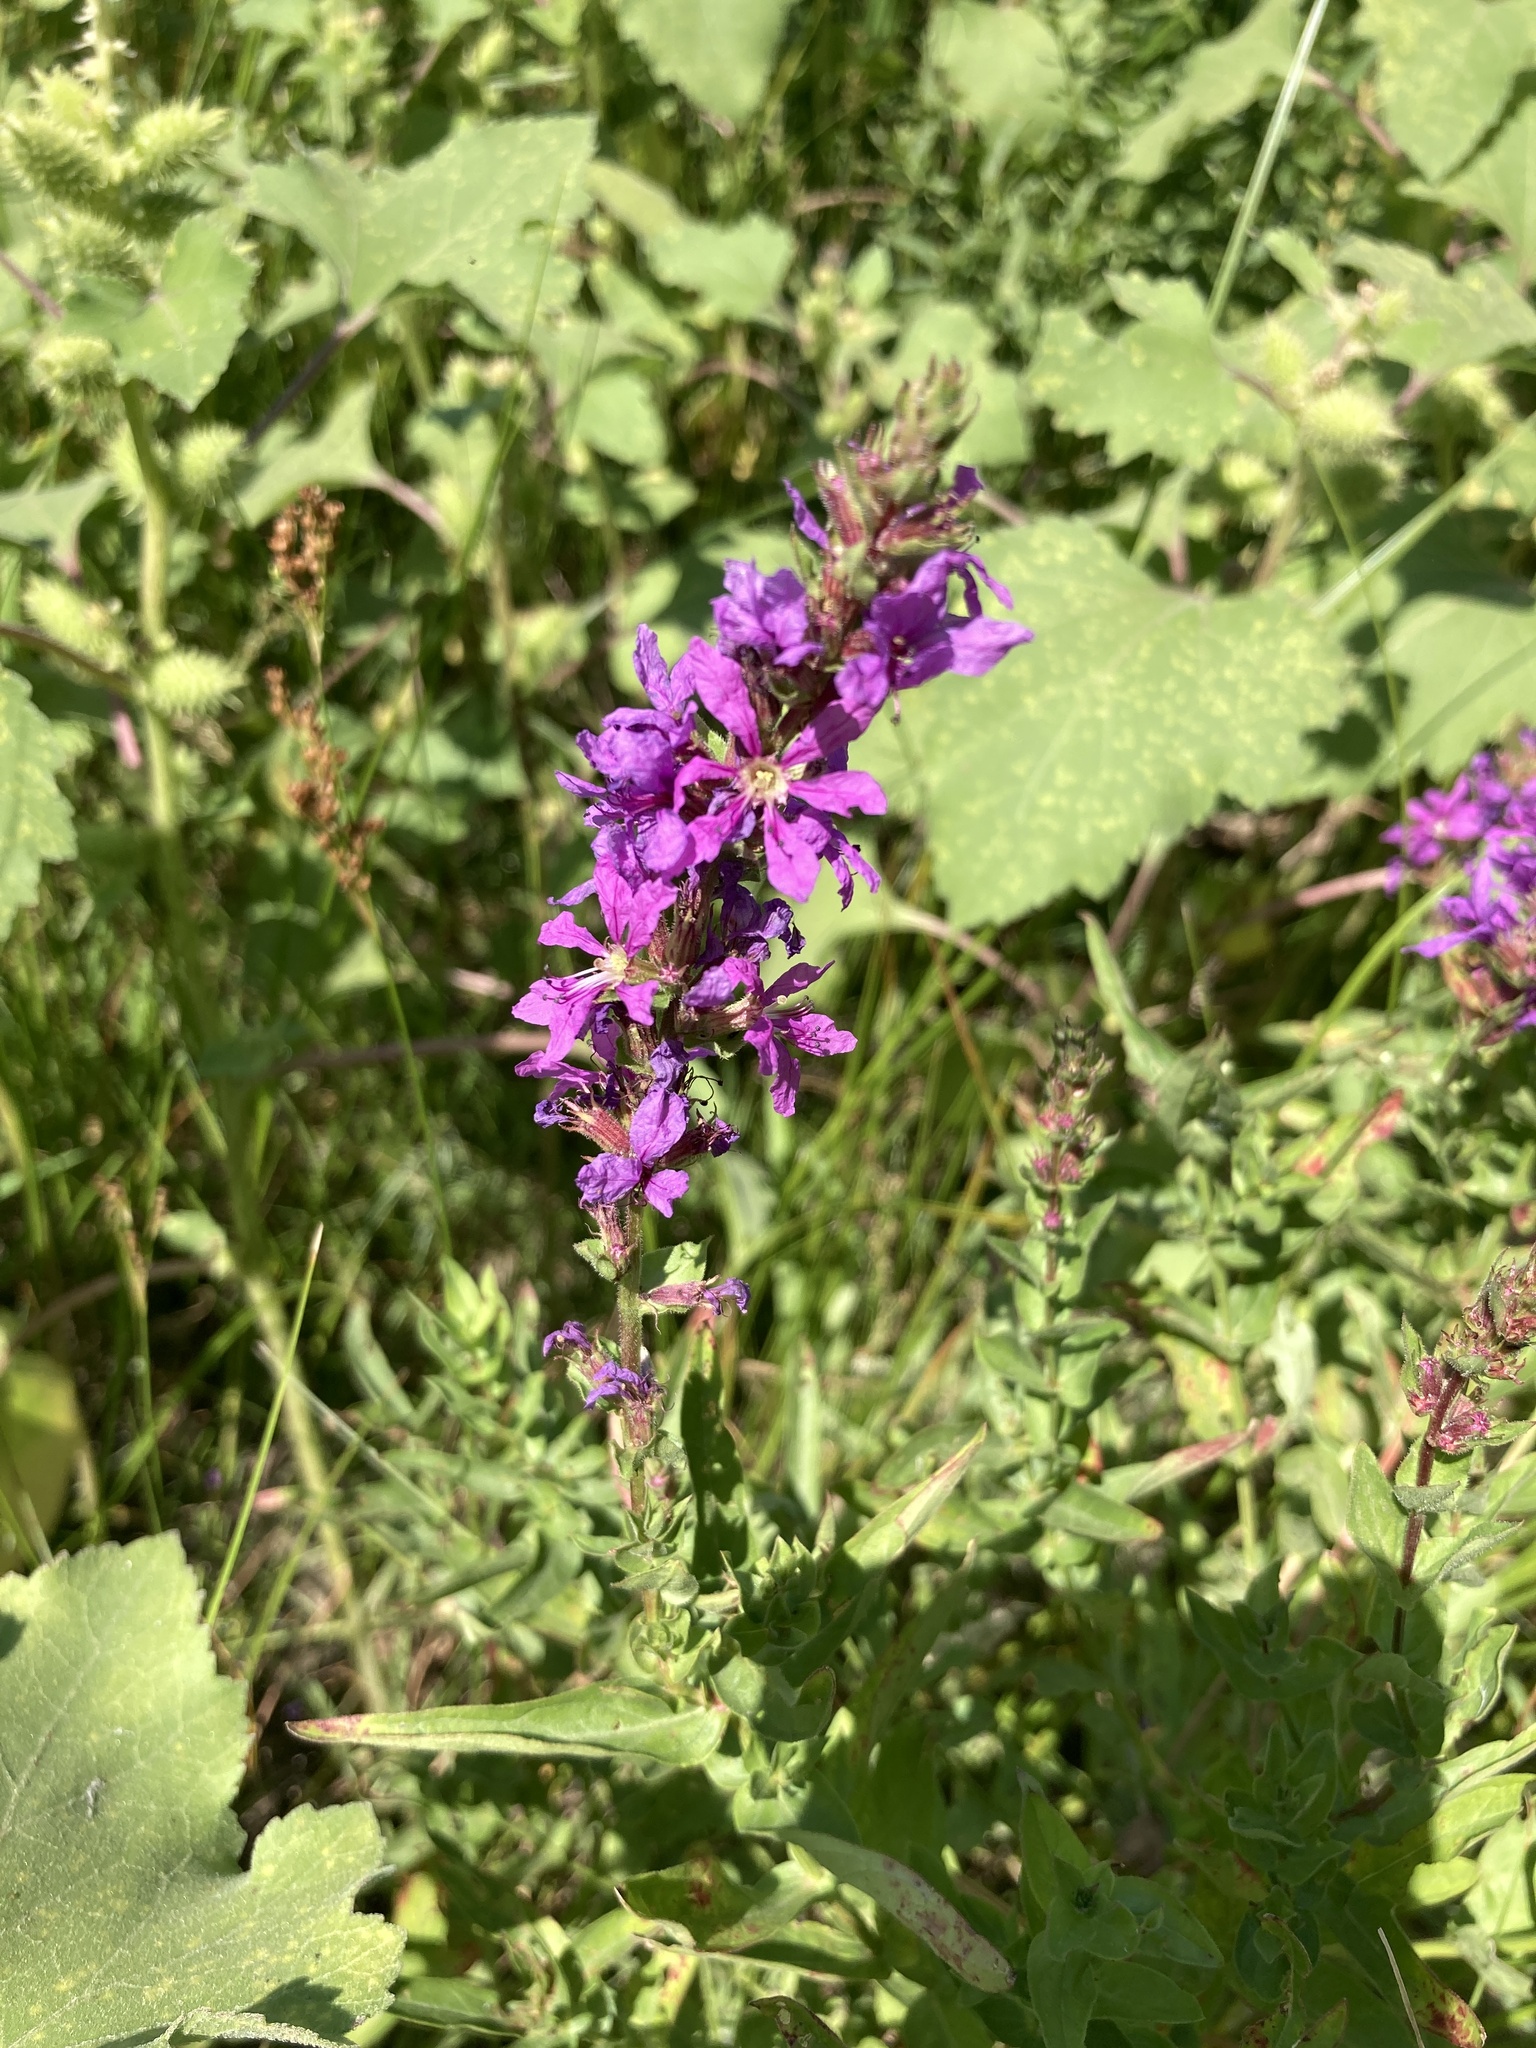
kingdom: Plantae
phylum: Tracheophyta
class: Magnoliopsida
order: Myrtales
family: Lythraceae
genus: Lythrum
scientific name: Lythrum salicaria
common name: Purple loosestrife
